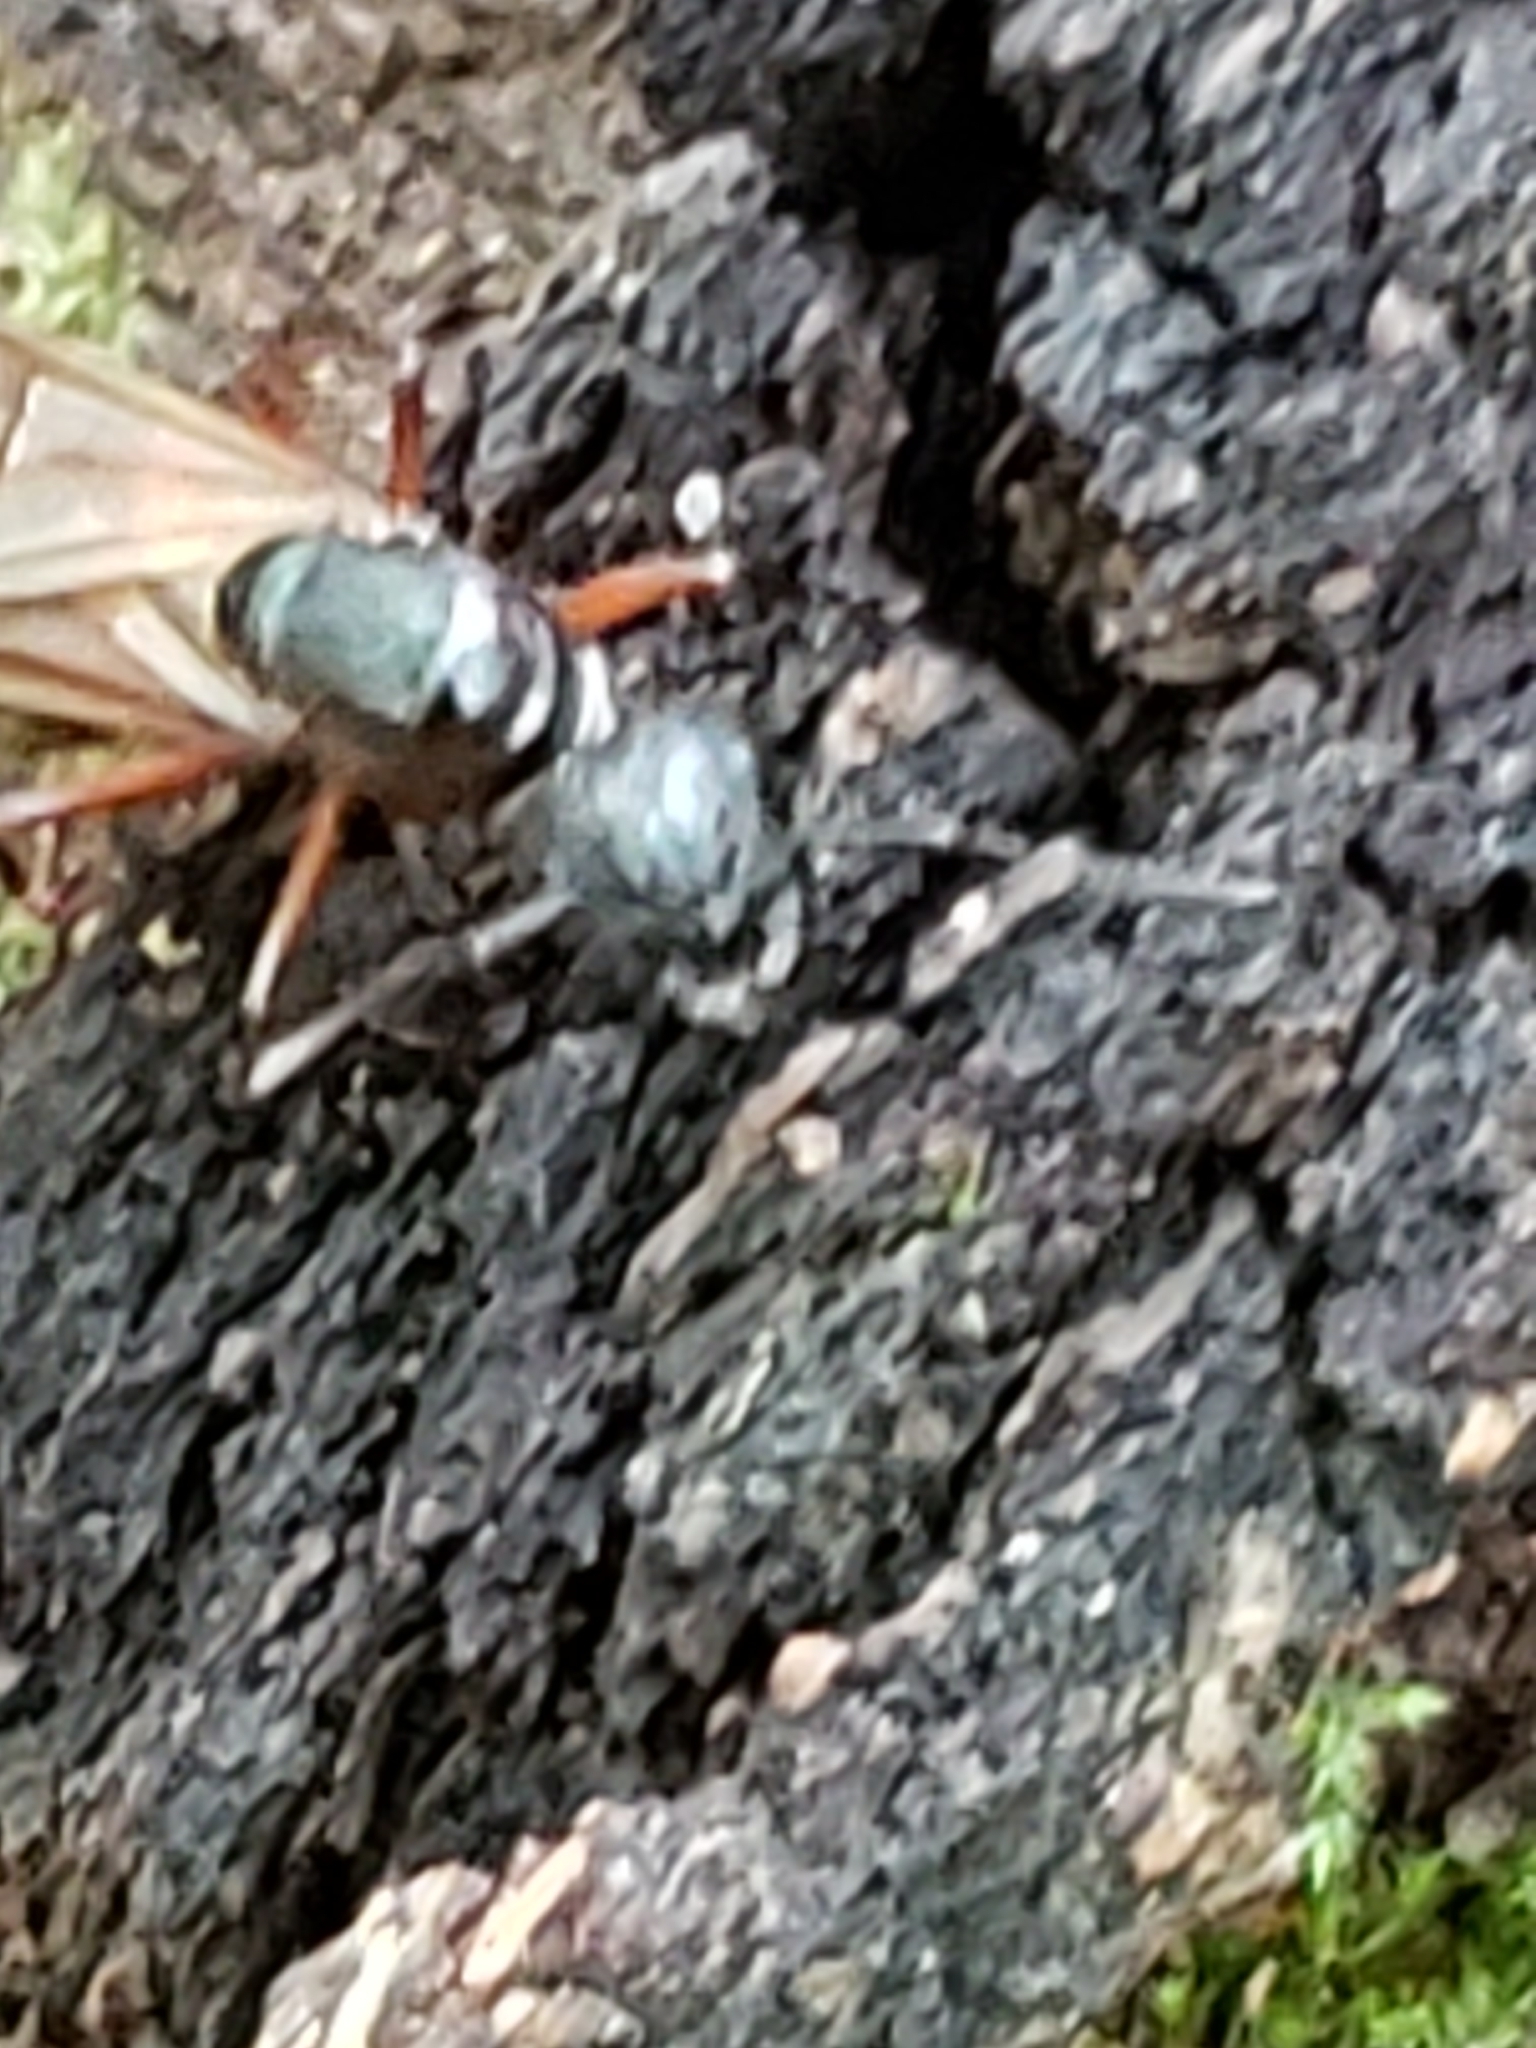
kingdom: Animalia
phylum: Arthropoda
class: Insecta
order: Hymenoptera
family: Formicidae
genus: Camponotus
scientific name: Camponotus chromaiodes
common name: Red carpenter ant
